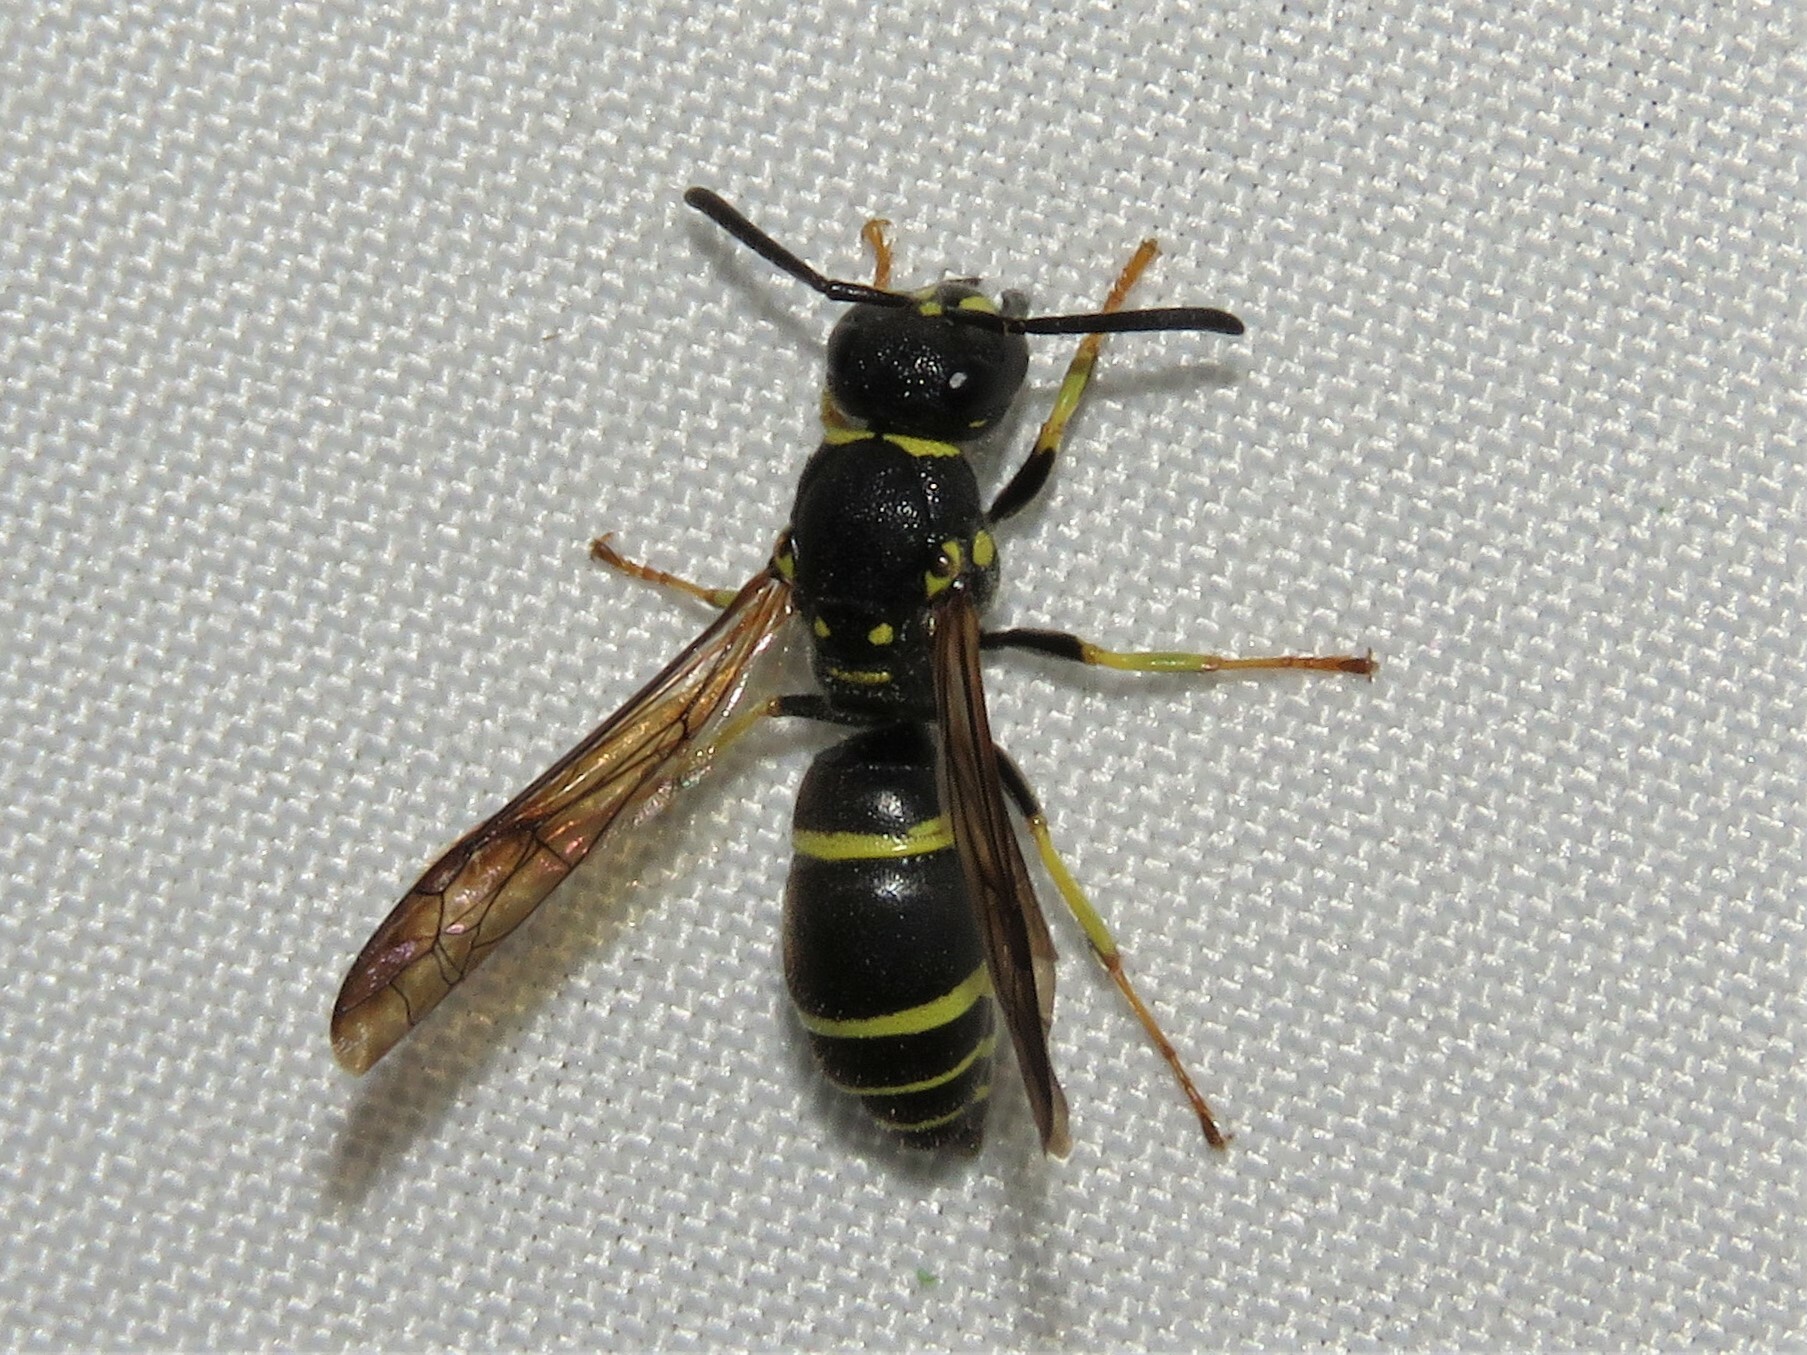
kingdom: Animalia
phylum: Arthropoda
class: Insecta
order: Hymenoptera
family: Vespidae
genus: Ancistrocerus
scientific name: Ancistrocerus adiabatus
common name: Bramble mason wasp
